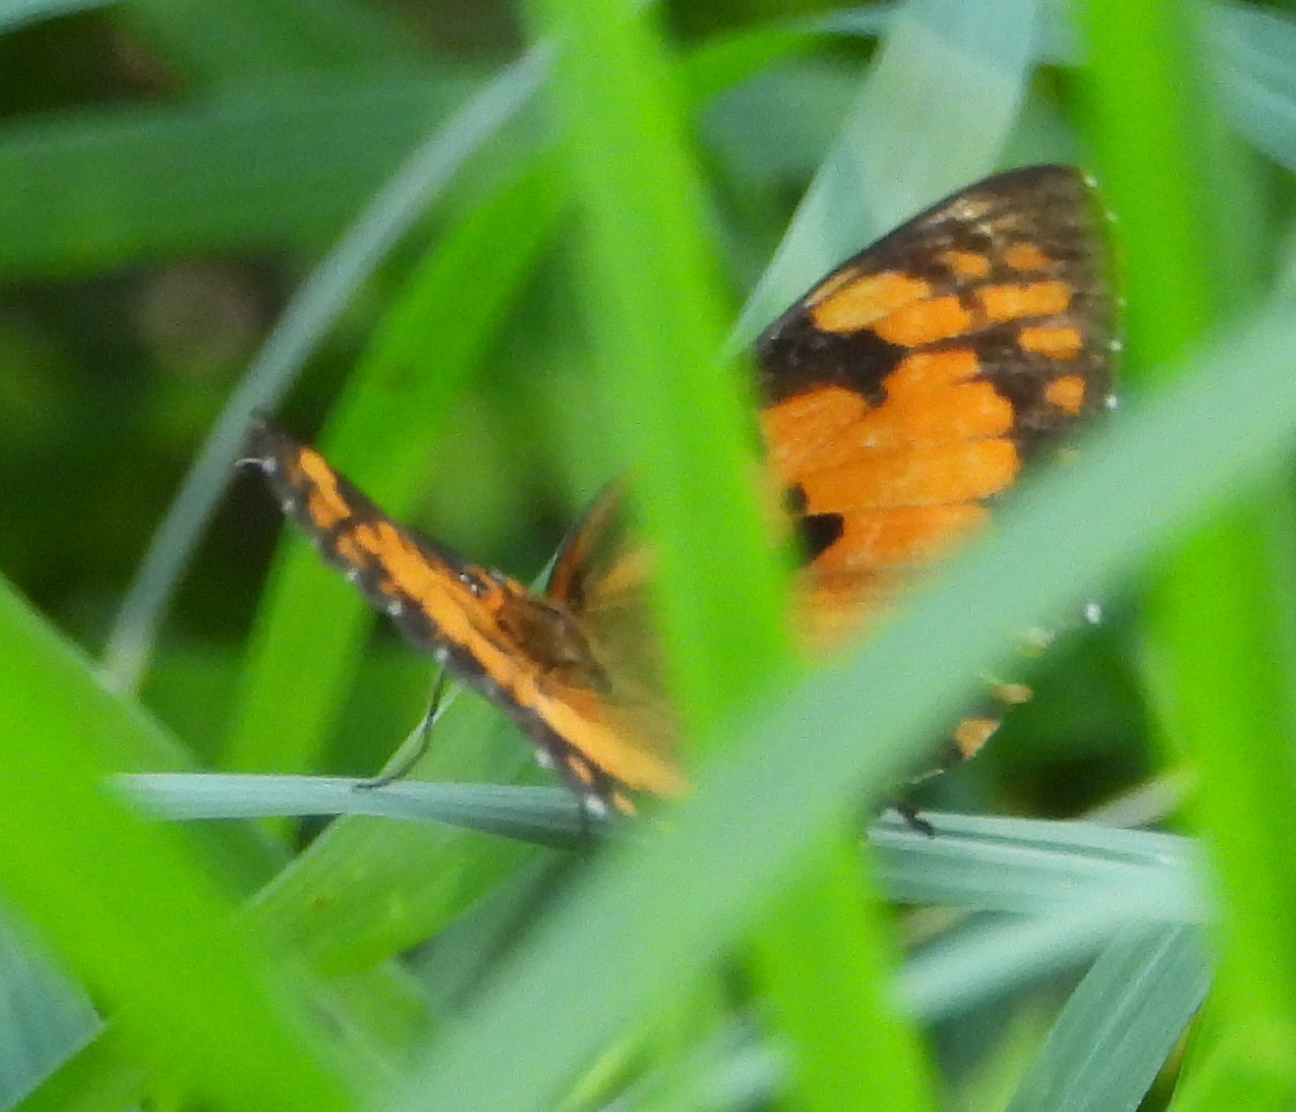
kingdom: Animalia
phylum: Arthropoda
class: Insecta
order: Lepidoptera
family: Nymphalidae
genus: Byblia
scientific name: Byblia anvatara
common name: African joker
